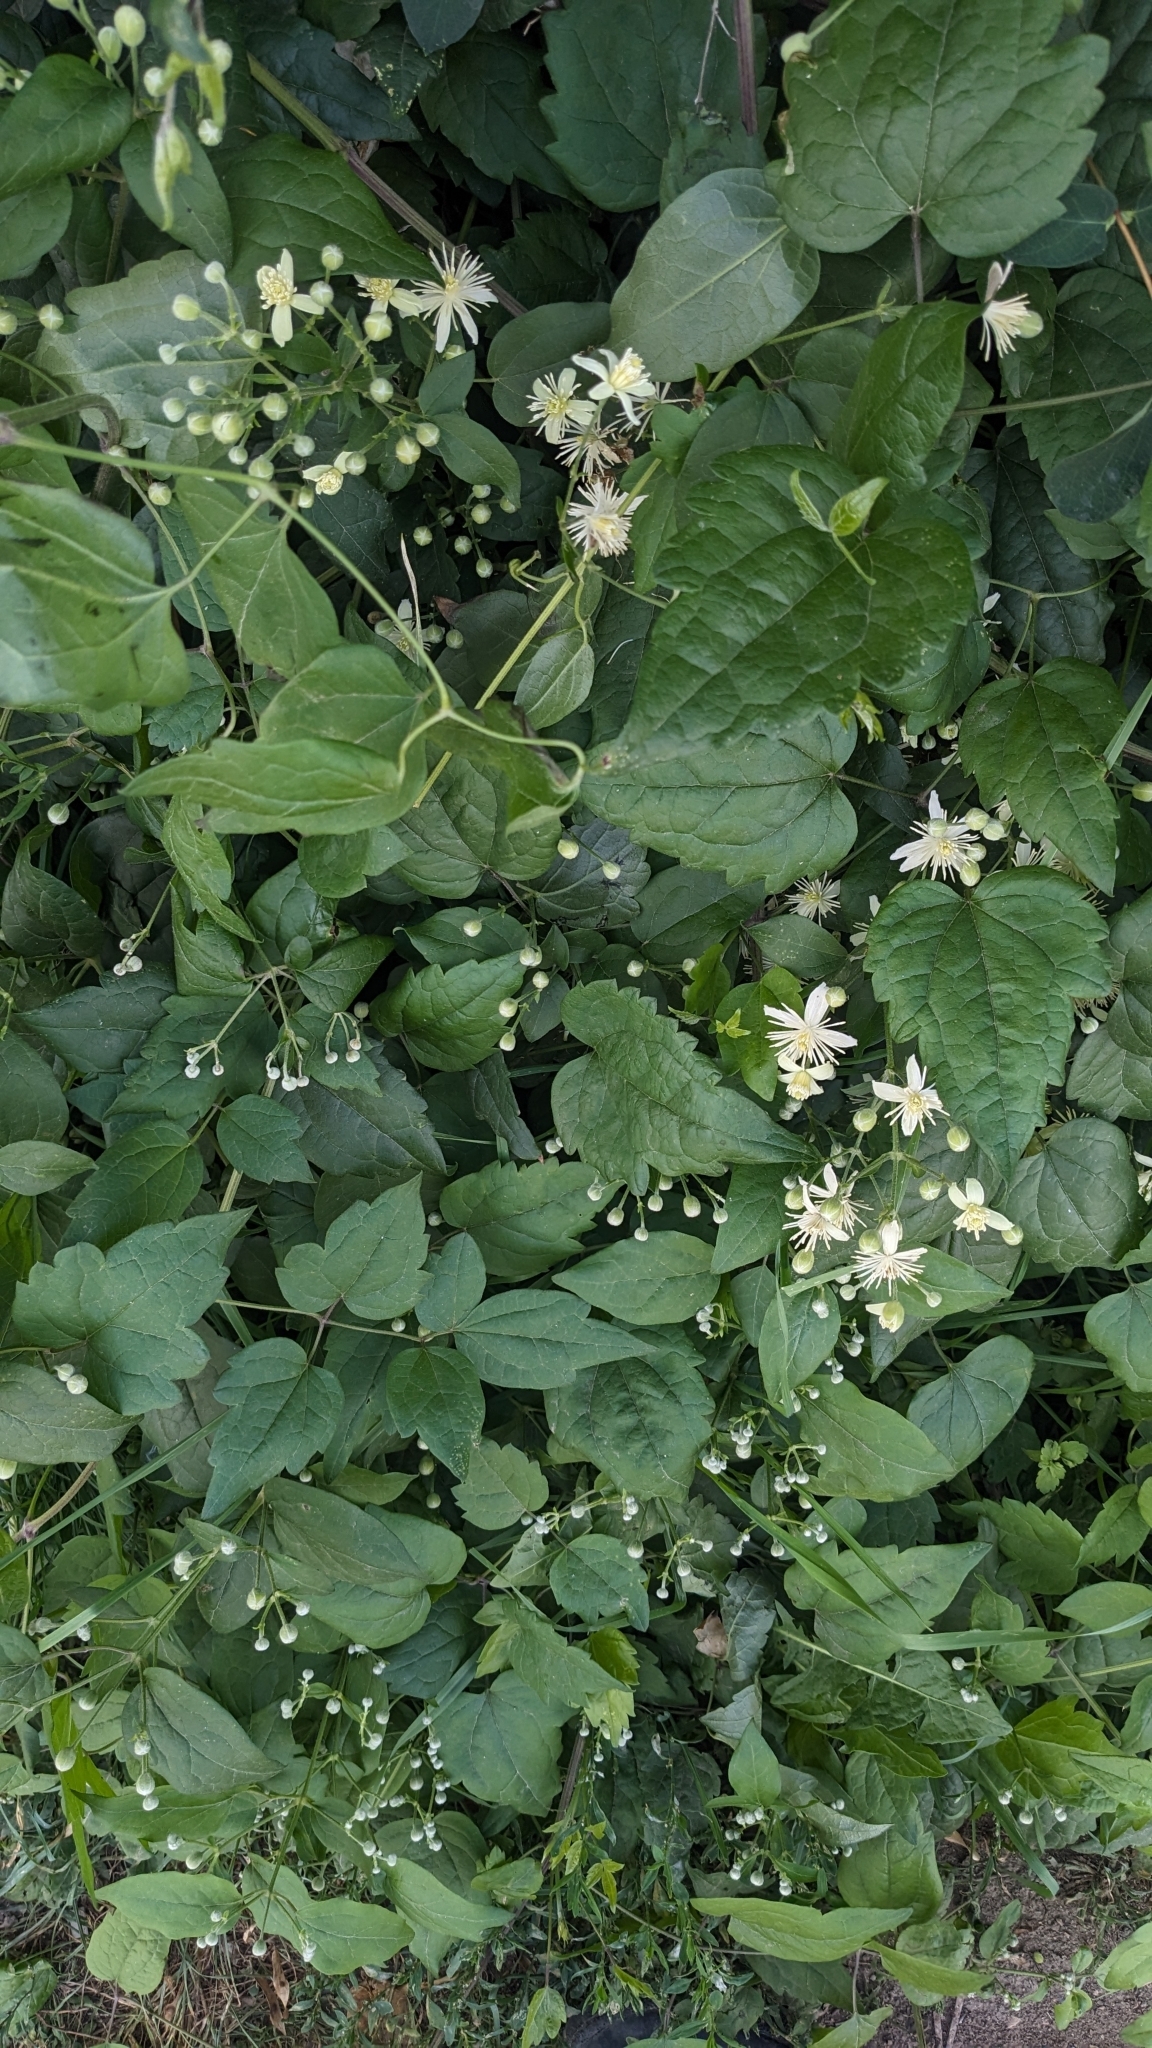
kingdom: Plantae
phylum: Tracheophyta
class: Magnoliopsida
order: Ranunculales
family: Ranunculaceae
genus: Clematis
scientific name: Clematis vitalba
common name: Evergreen clematis
